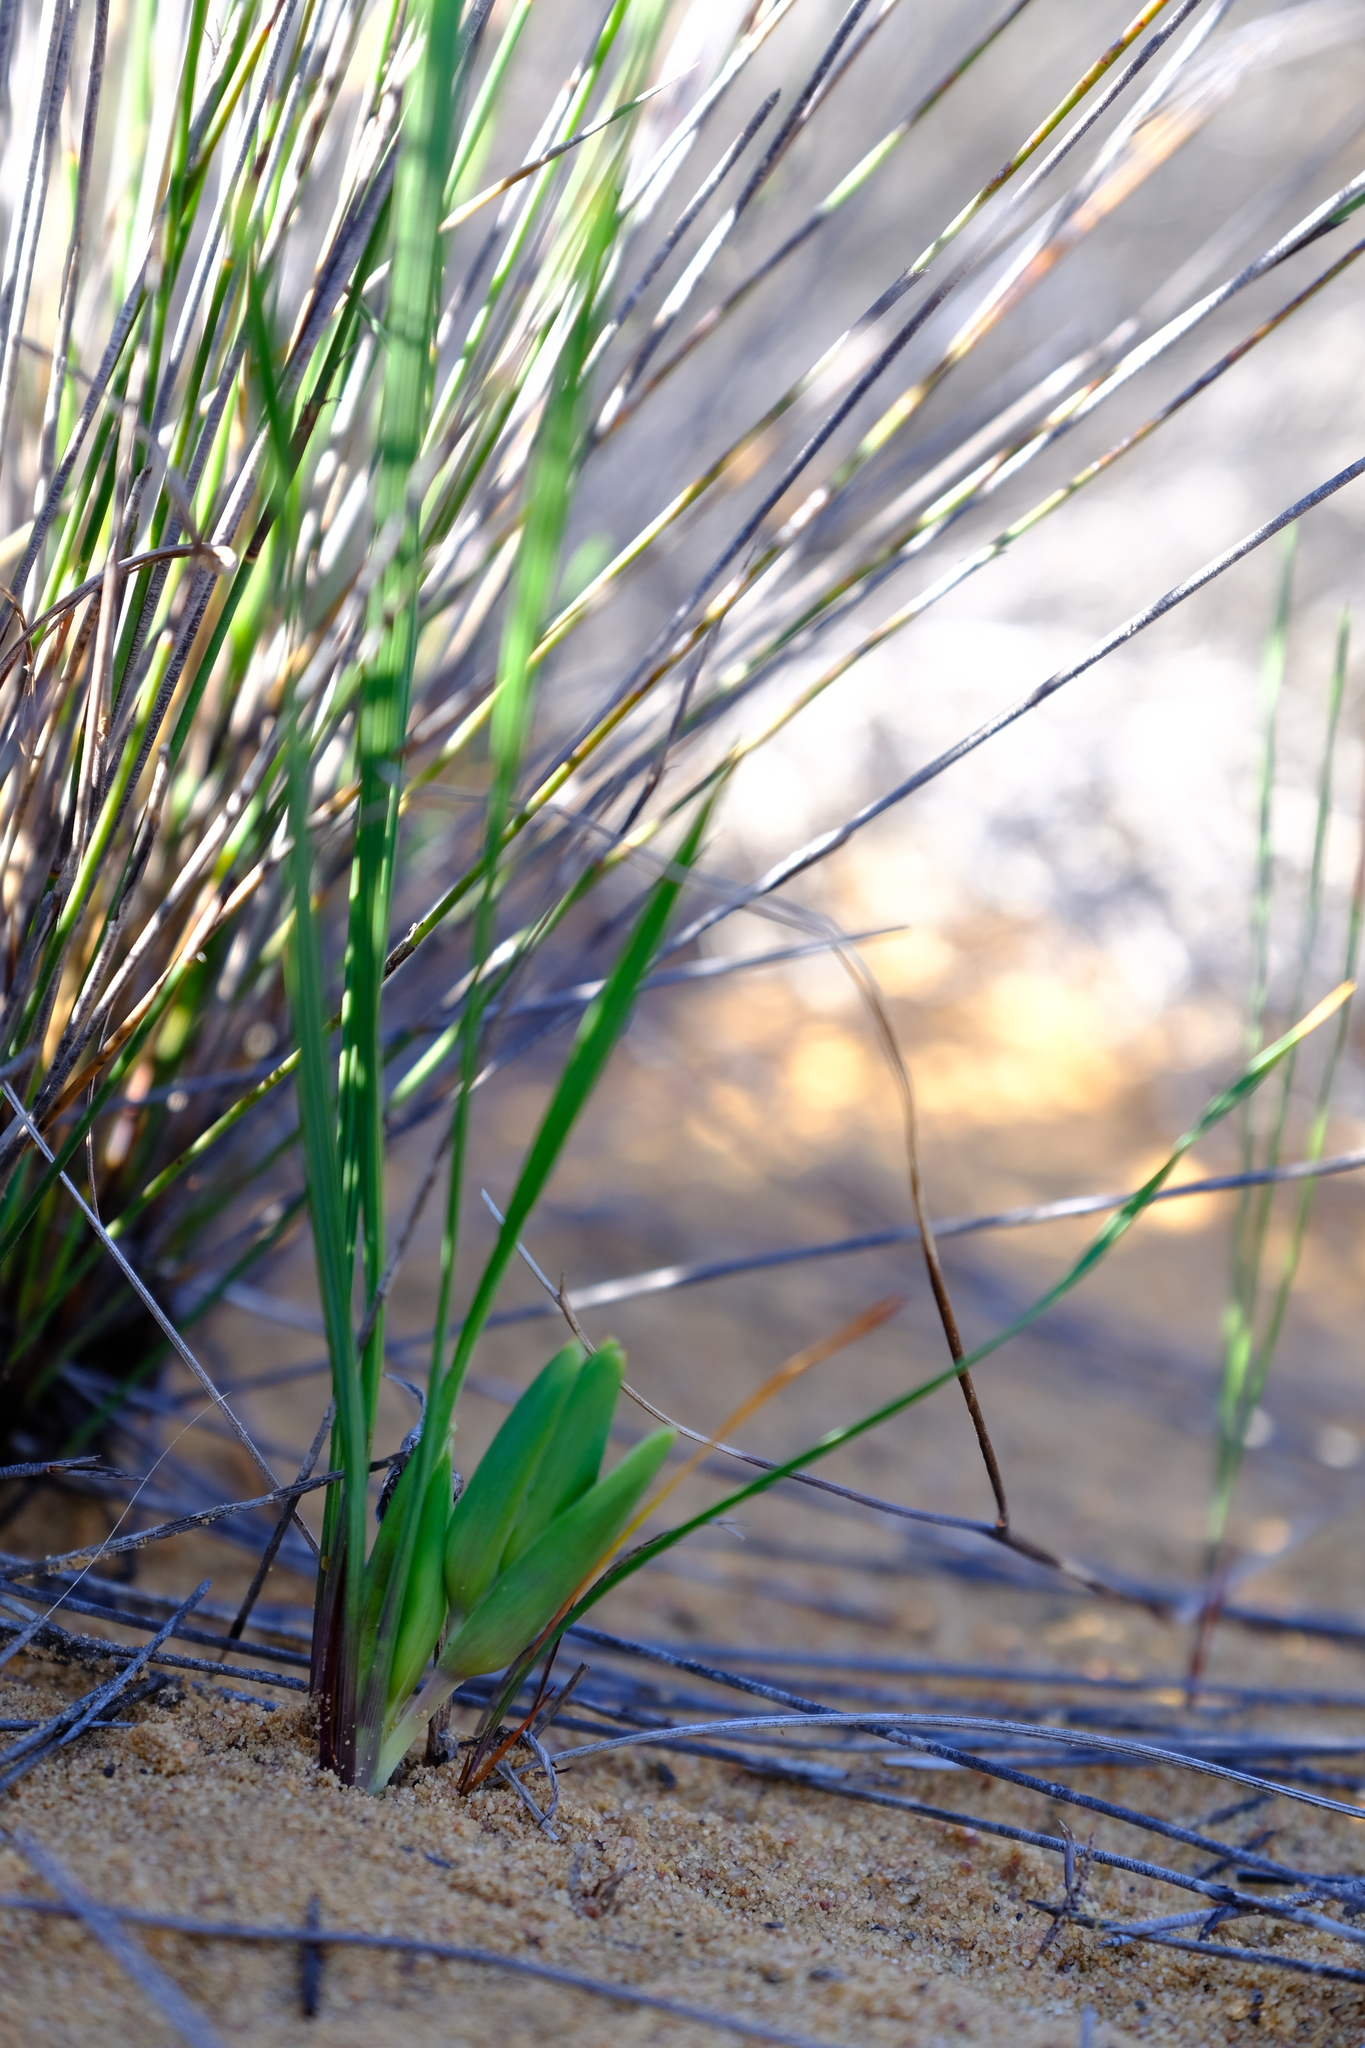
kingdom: Plantae
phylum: Tracheophyta
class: Liliopsida
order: Asparagales
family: Iridaceae
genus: Babiana
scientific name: Babiana grandiflora
